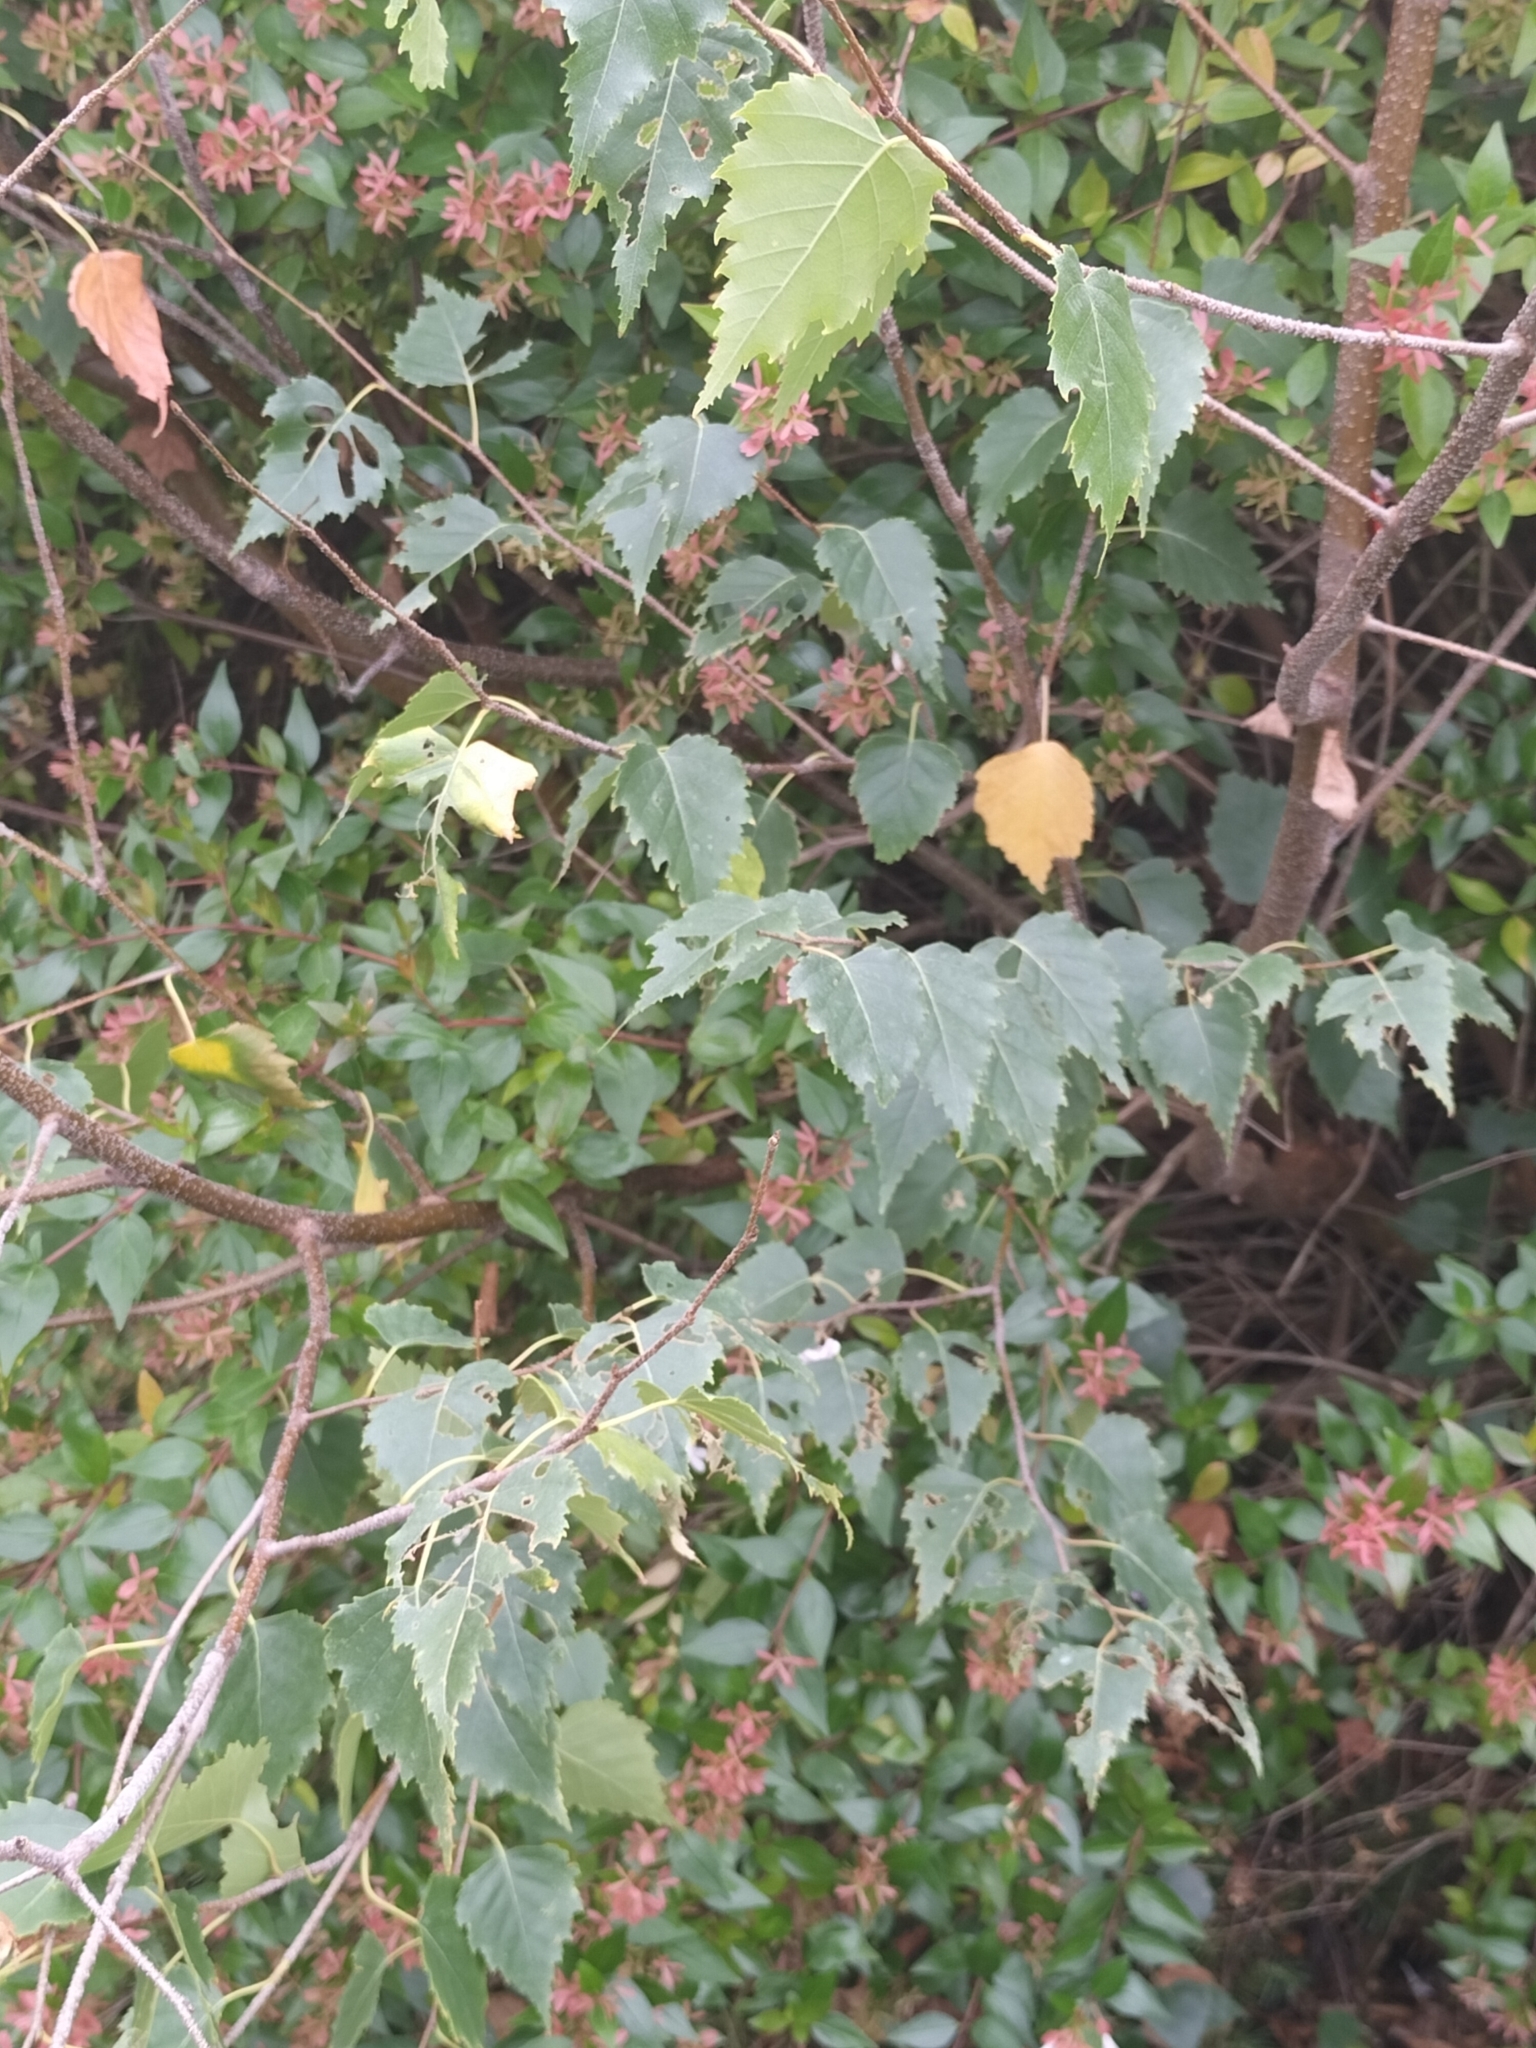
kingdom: Plantae
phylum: Tracheophyta
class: Magnoliopsida
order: Fagales
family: Betulaceae
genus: Betula
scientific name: Betula pendula
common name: Silver birch
